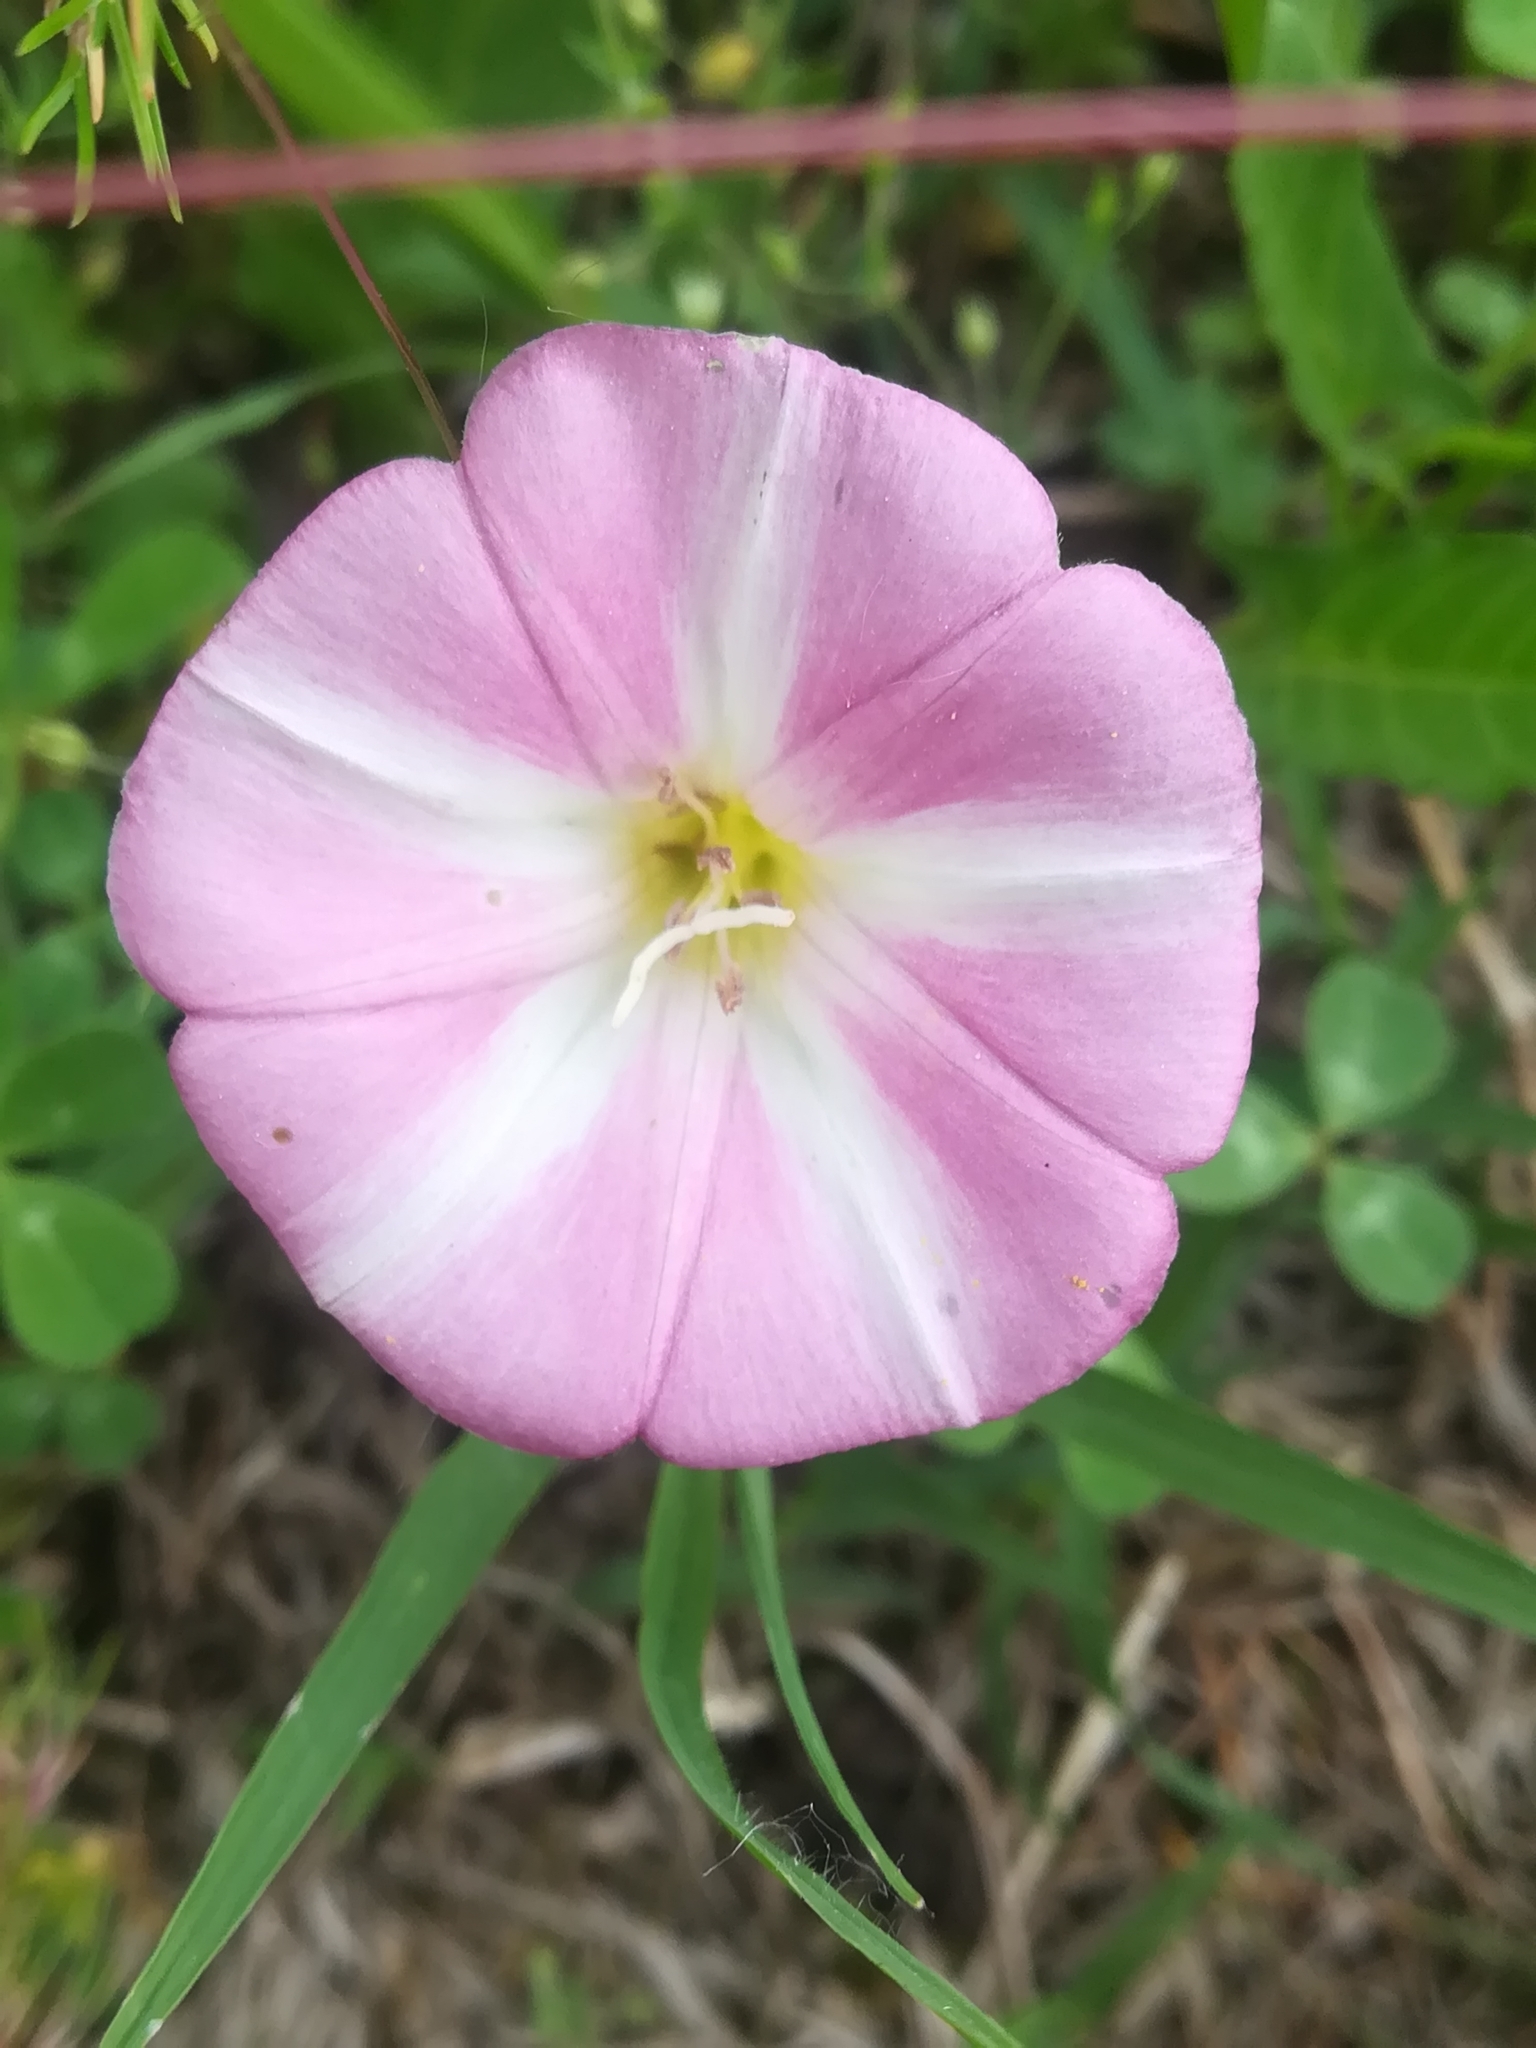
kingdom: Plantae
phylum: Tracheophyta
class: Magnoliopsida
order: Solanales
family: Convolvulaceae
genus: Convolvulus
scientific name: Convolvulus arvensis
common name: Field bindweed
